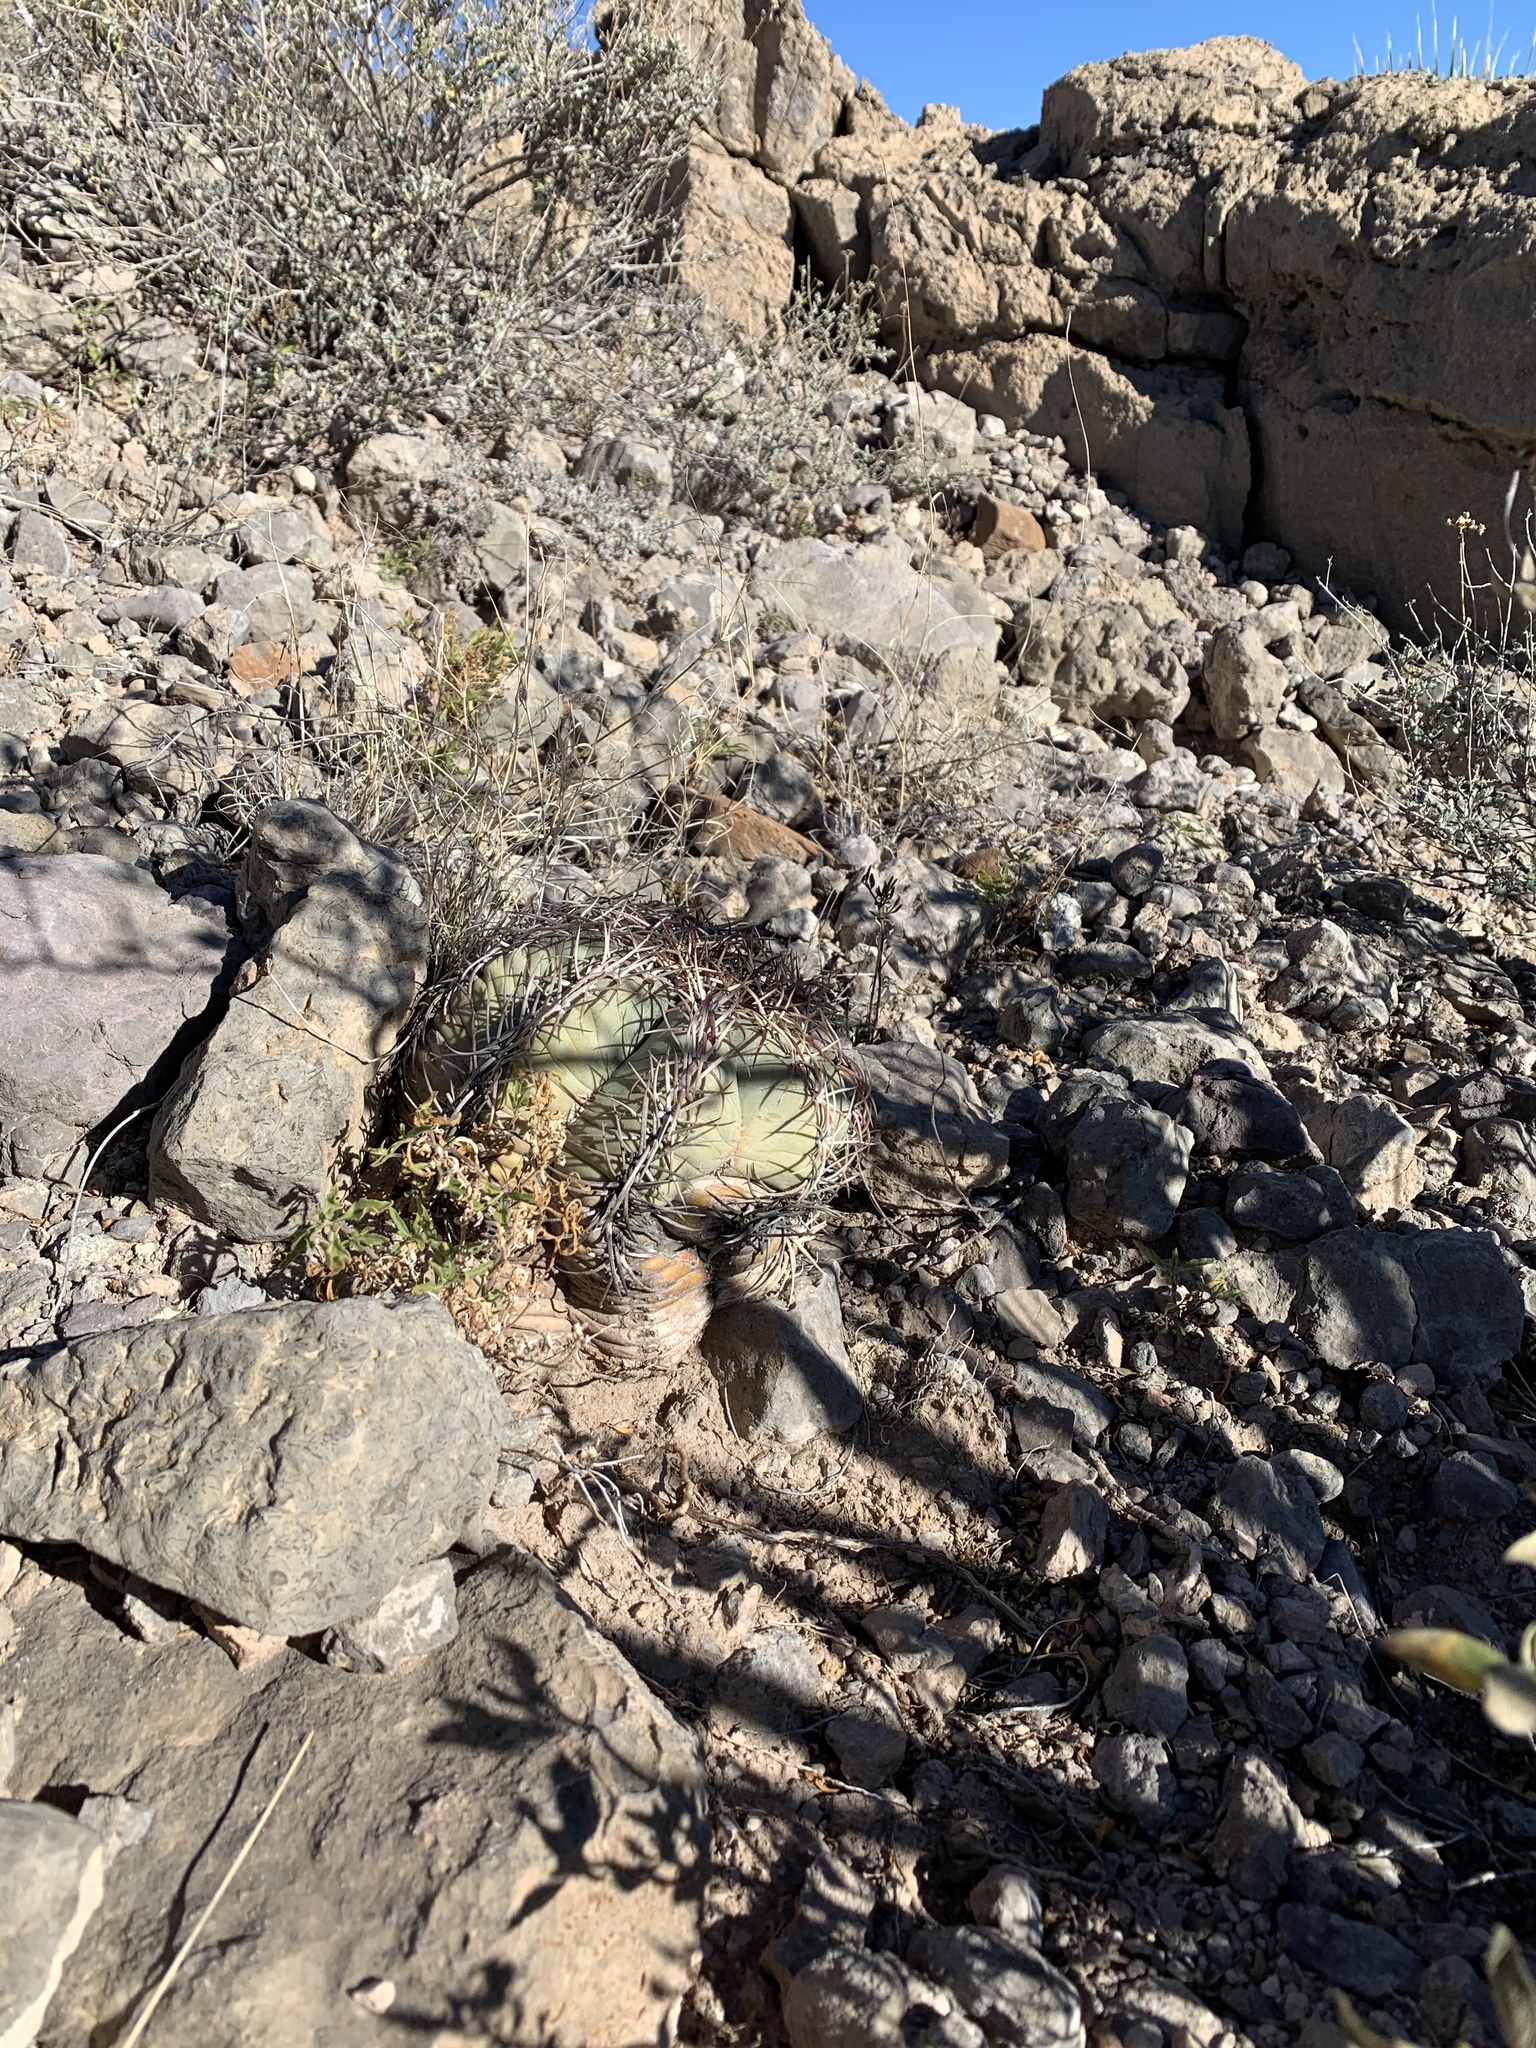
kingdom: Plantae
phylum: Tracheophyta
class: Magnoliopsida
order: Caryophyllales
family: Cactaceae
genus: Echinocactus
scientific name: Echinocactus horizonthalonius
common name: Devilshead
